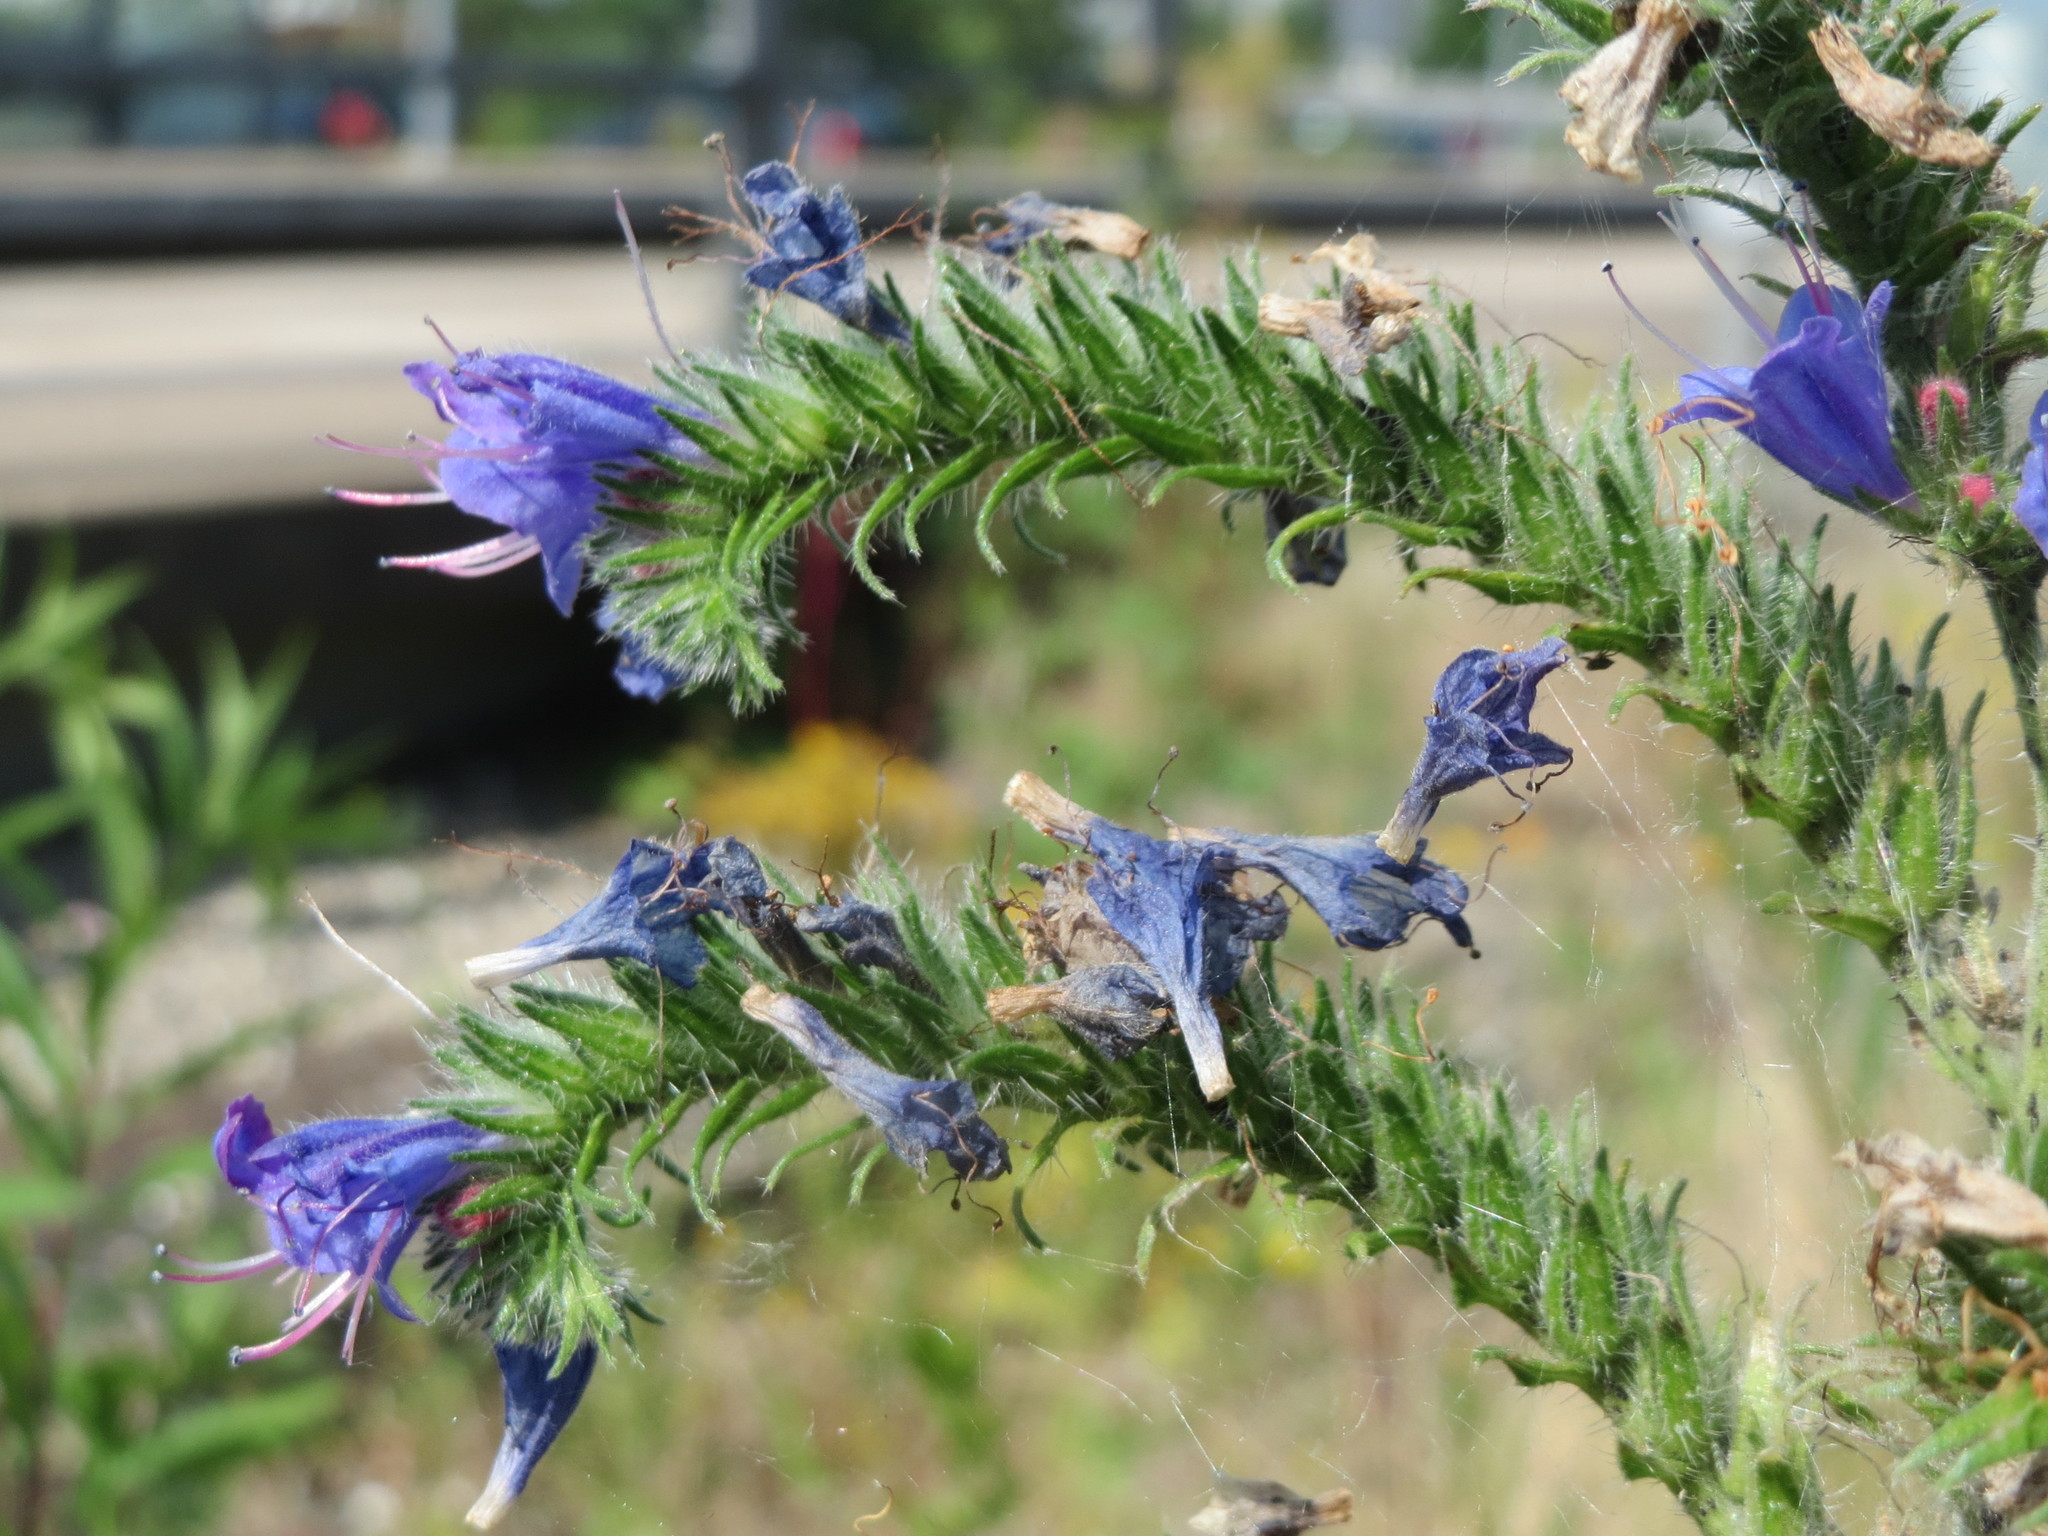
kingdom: Plantae
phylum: Tracheophyta
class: Magnoliopsida
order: Boraginales
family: Boraginaceae
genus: Echium
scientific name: Echium vulgare
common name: Common viper's bugloss
